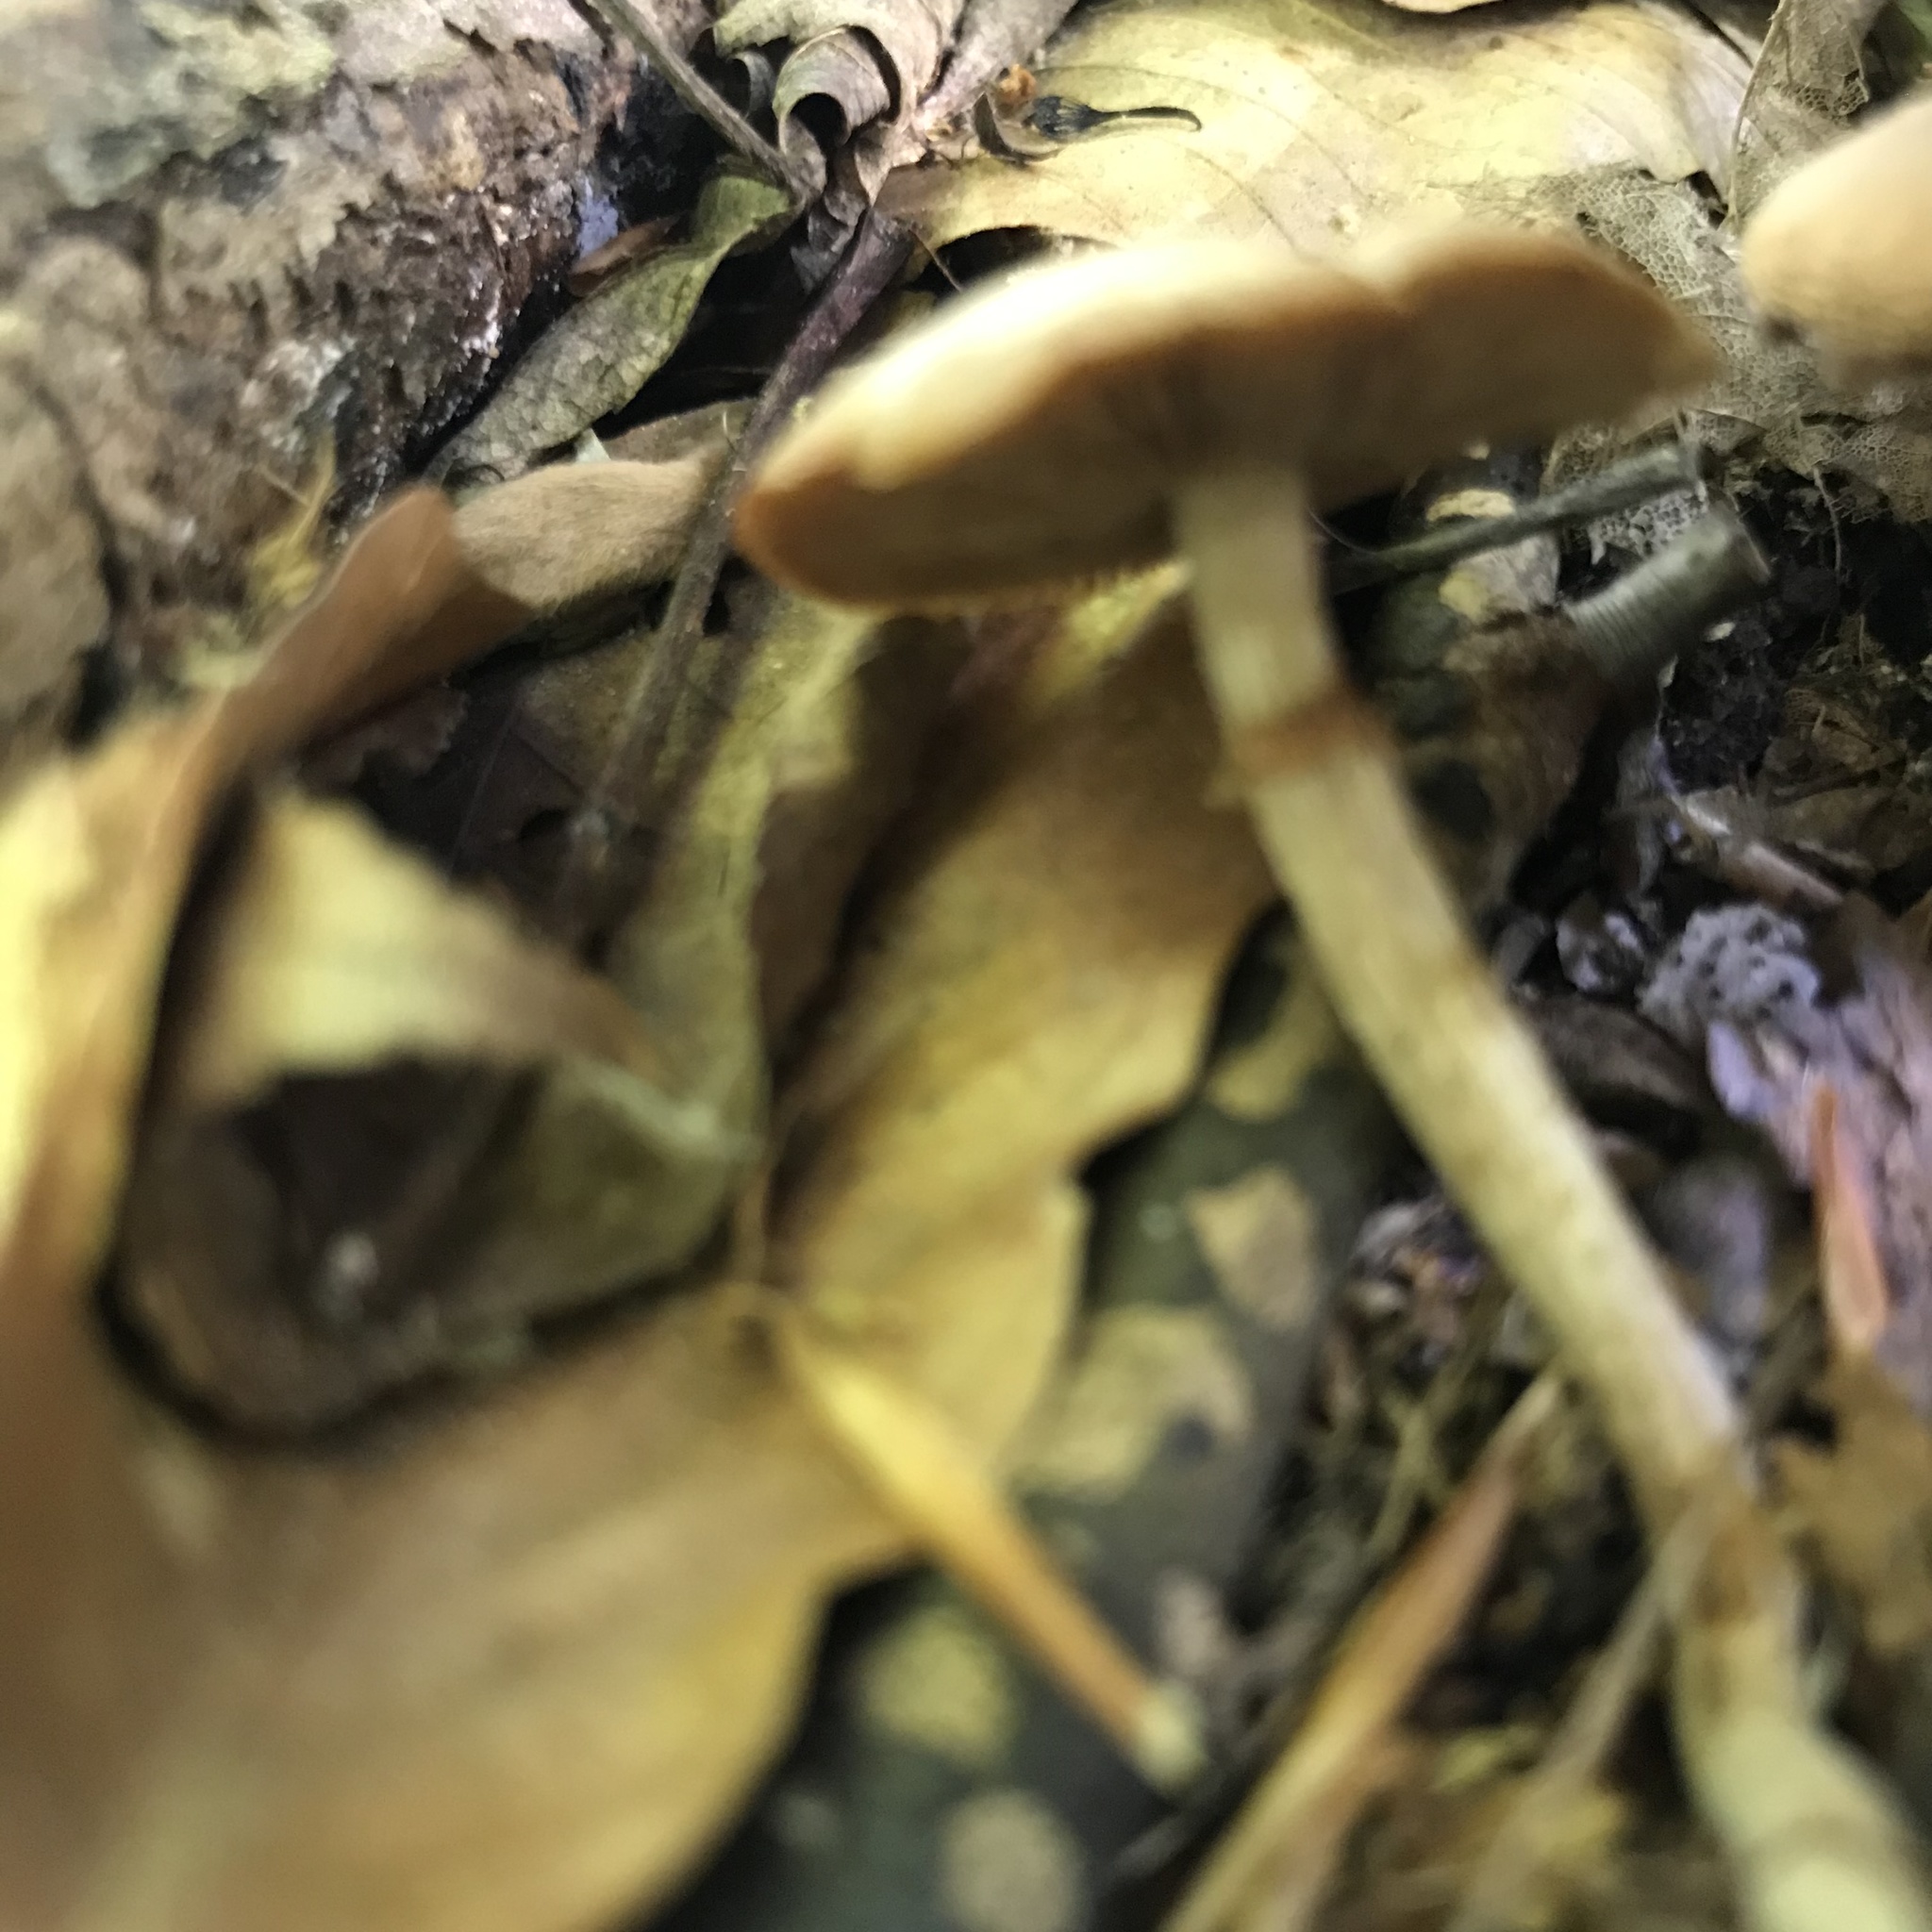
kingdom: Fungi
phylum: Basidiomycota
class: Agaricomycetes
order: Agaricales
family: Strophariaceae
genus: Kuehneromyces
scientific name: Kuehneromyces marginellus
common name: Sheathed woodtuft
